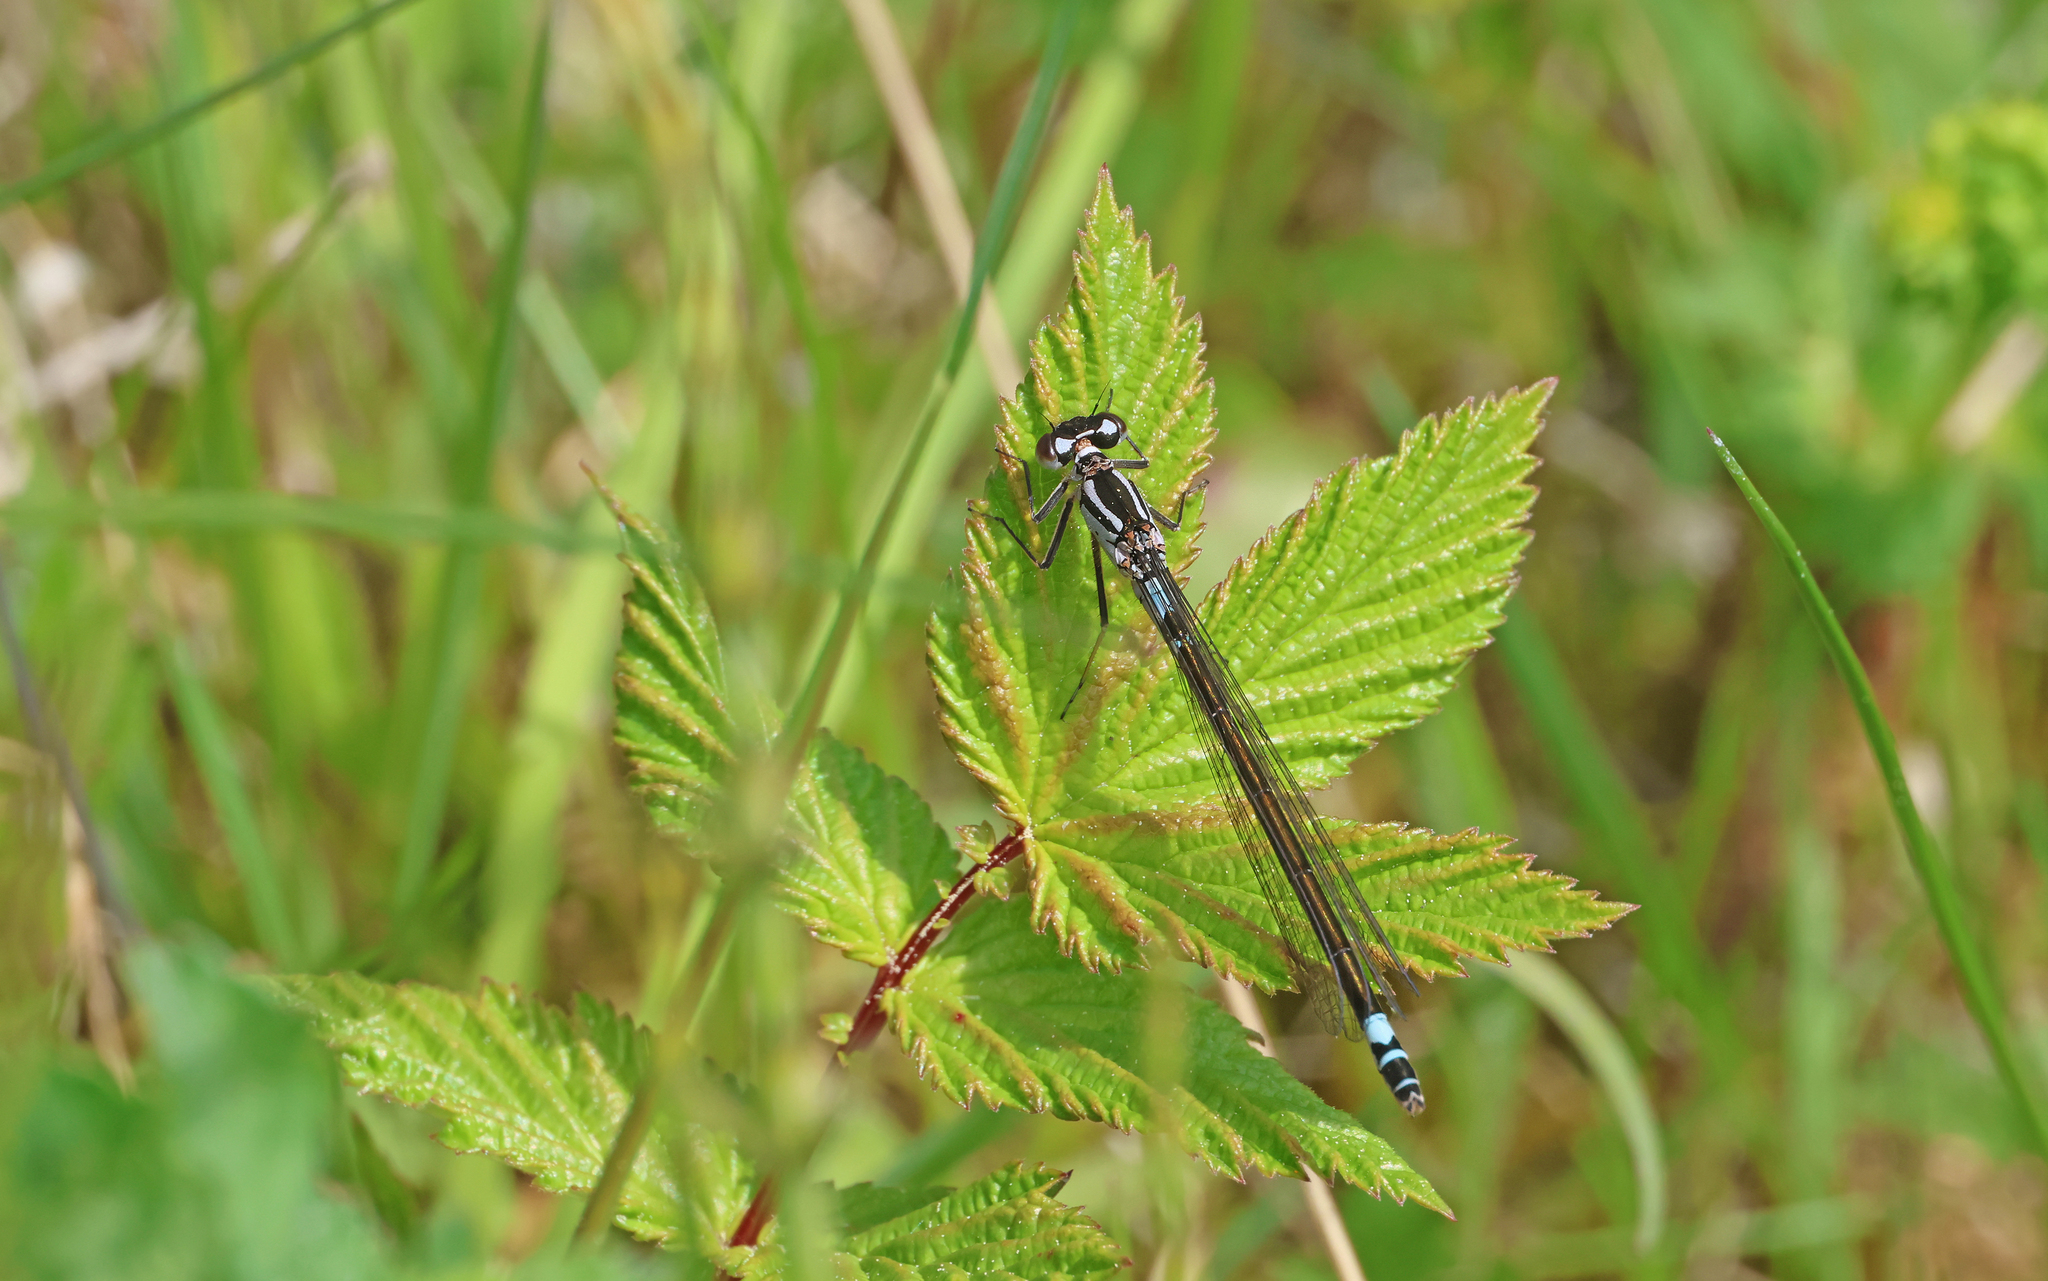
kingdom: Animalia
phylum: Arthropoda
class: Insecta
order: Odonata
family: Coenagrionidae
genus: Coenagrion
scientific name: Coenagrion armatum
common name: Dark bluet
